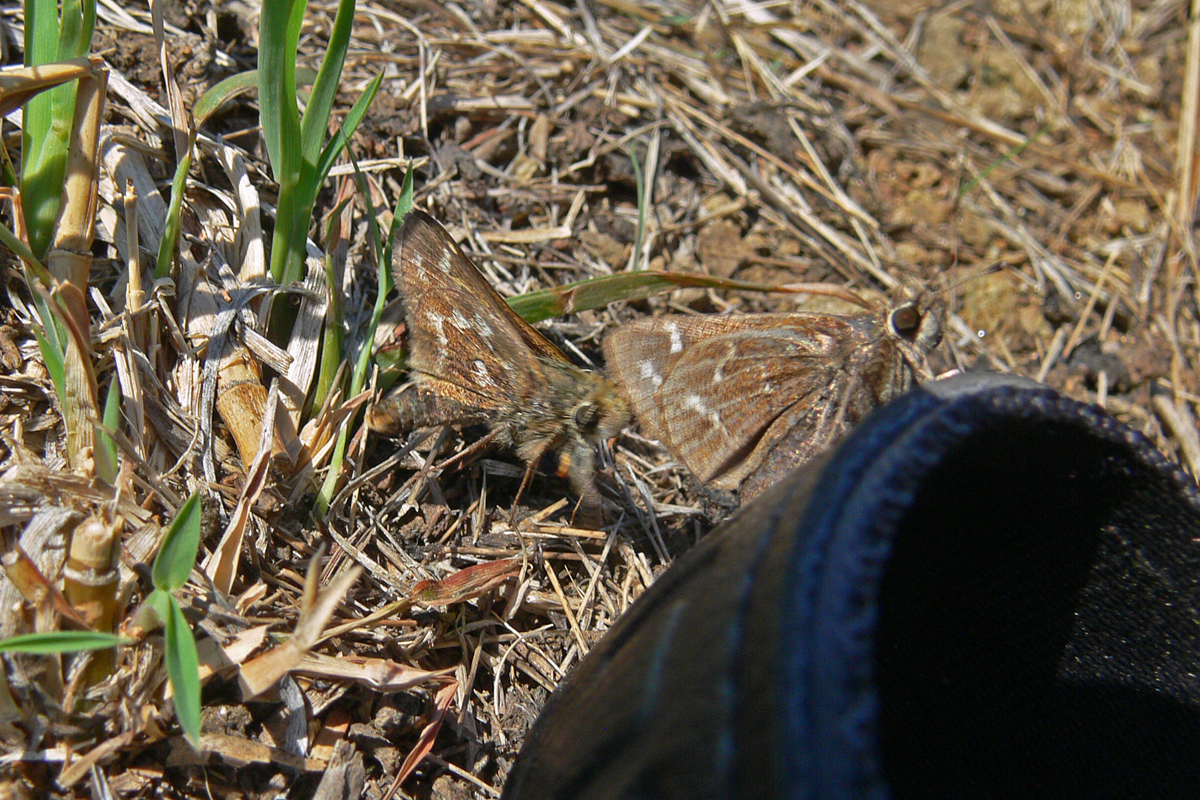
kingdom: Animalia
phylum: Arthropoda
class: Insecta
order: Lepidoptera
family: Hesperiidae
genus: Hesperia
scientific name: Hesperia metea
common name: Cobweb skipper
